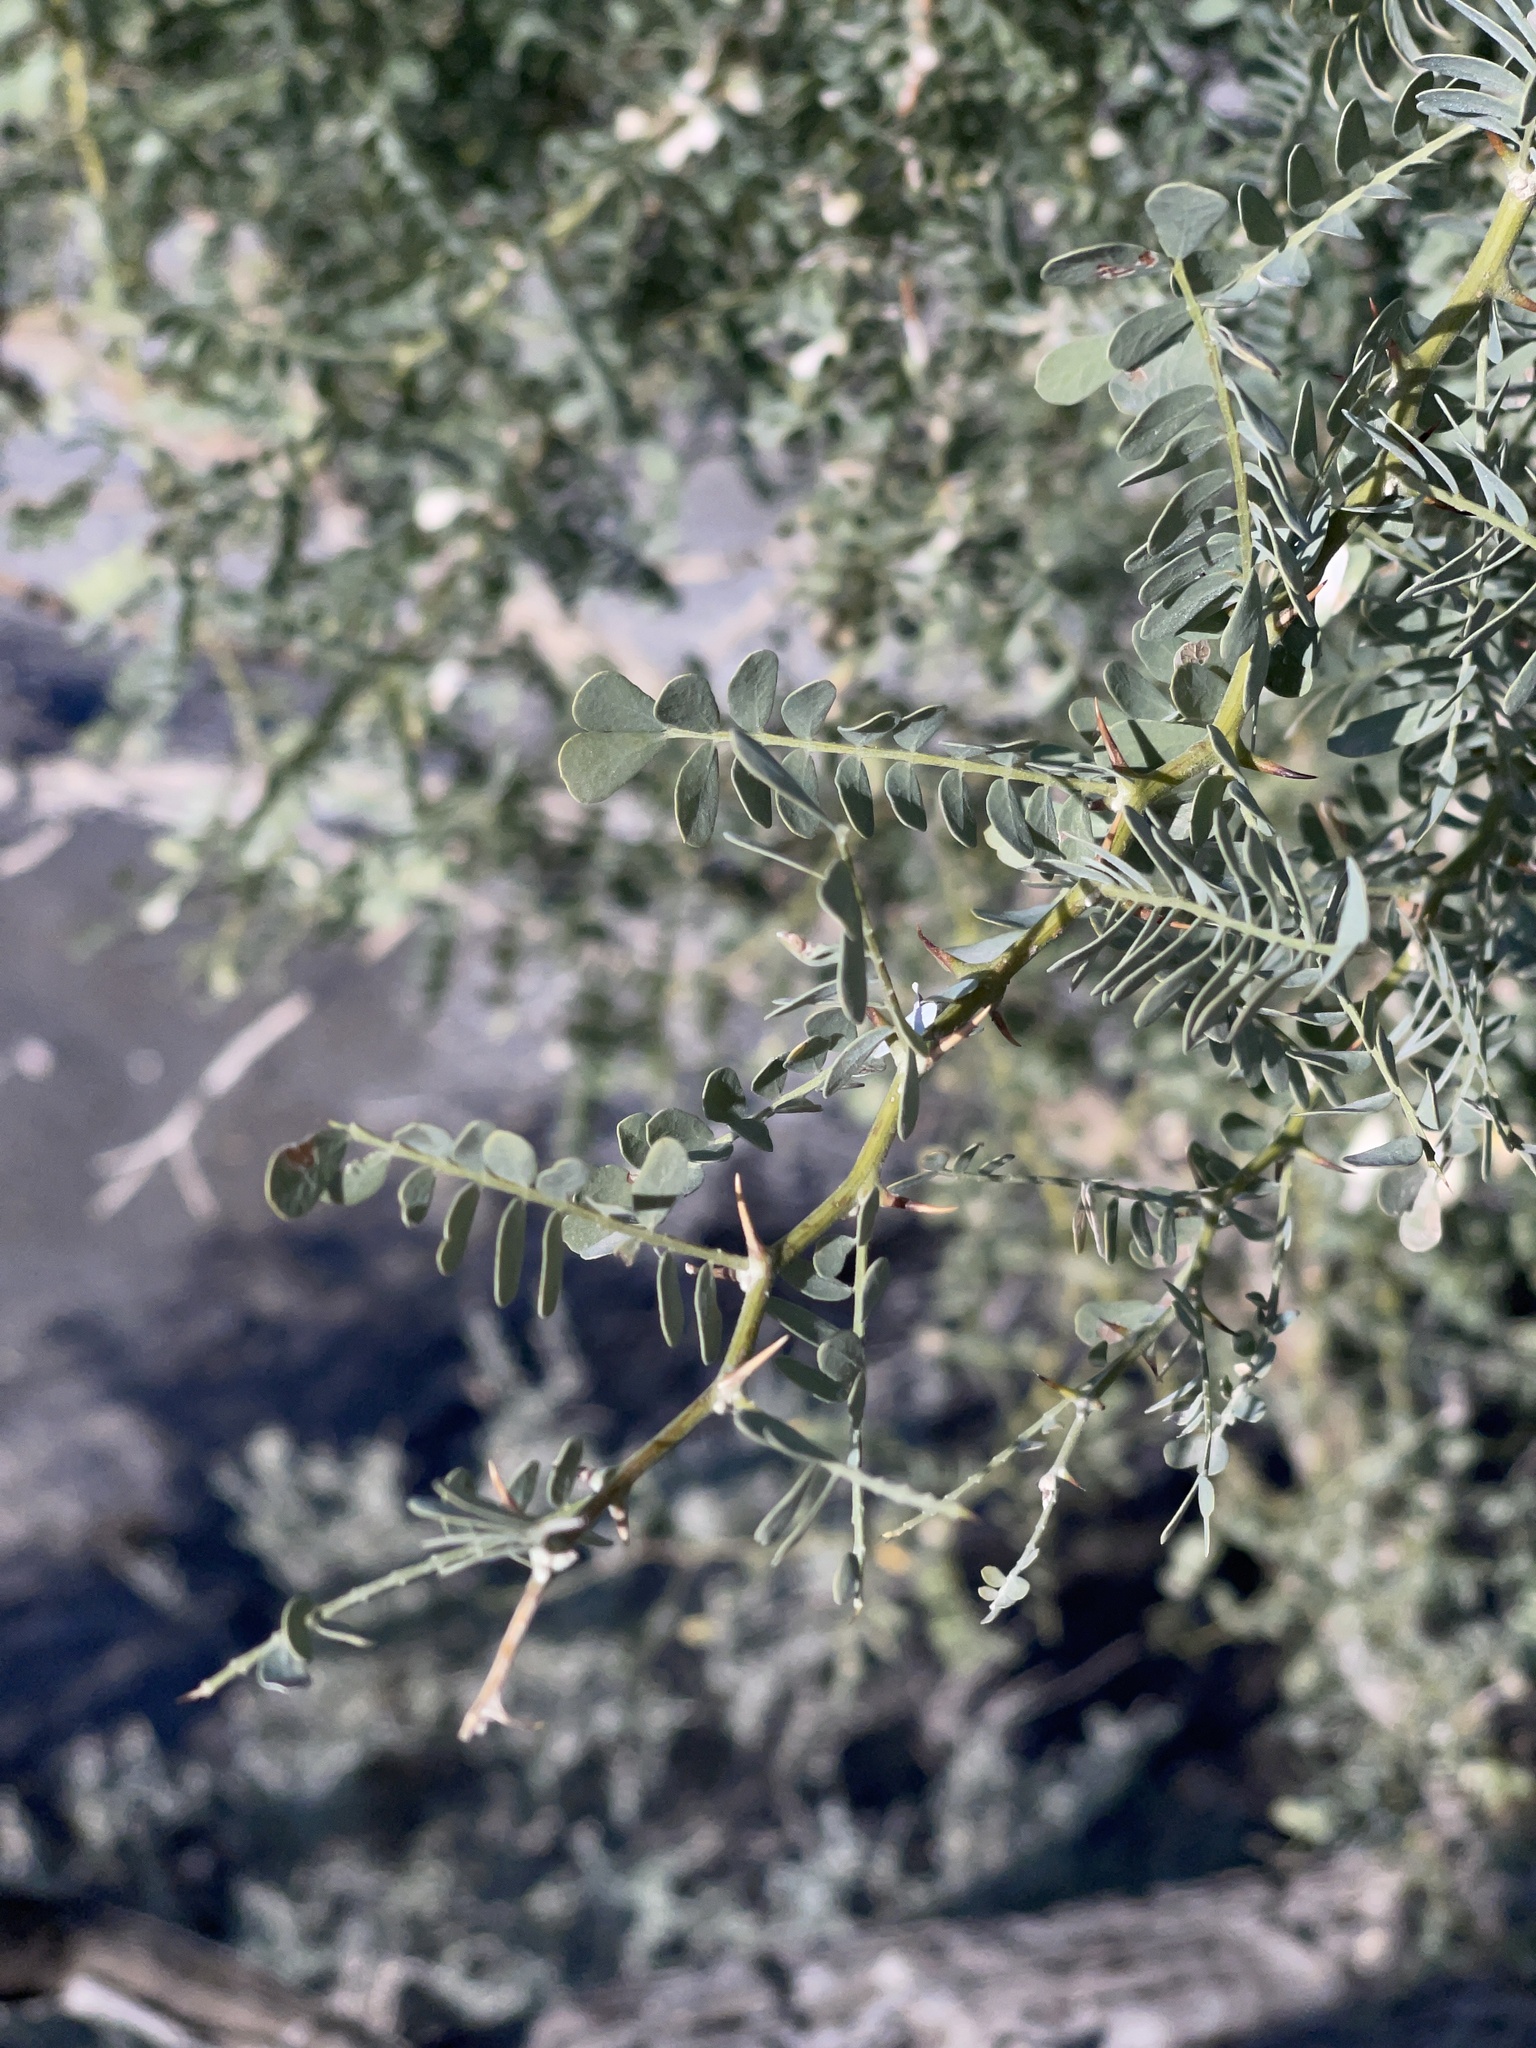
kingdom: Plantae
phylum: Tracheophyta
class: Magnoliopsida
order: Fabales
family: Fabaceae
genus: Olneya
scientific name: Olneya tesota
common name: Desert ironwood
